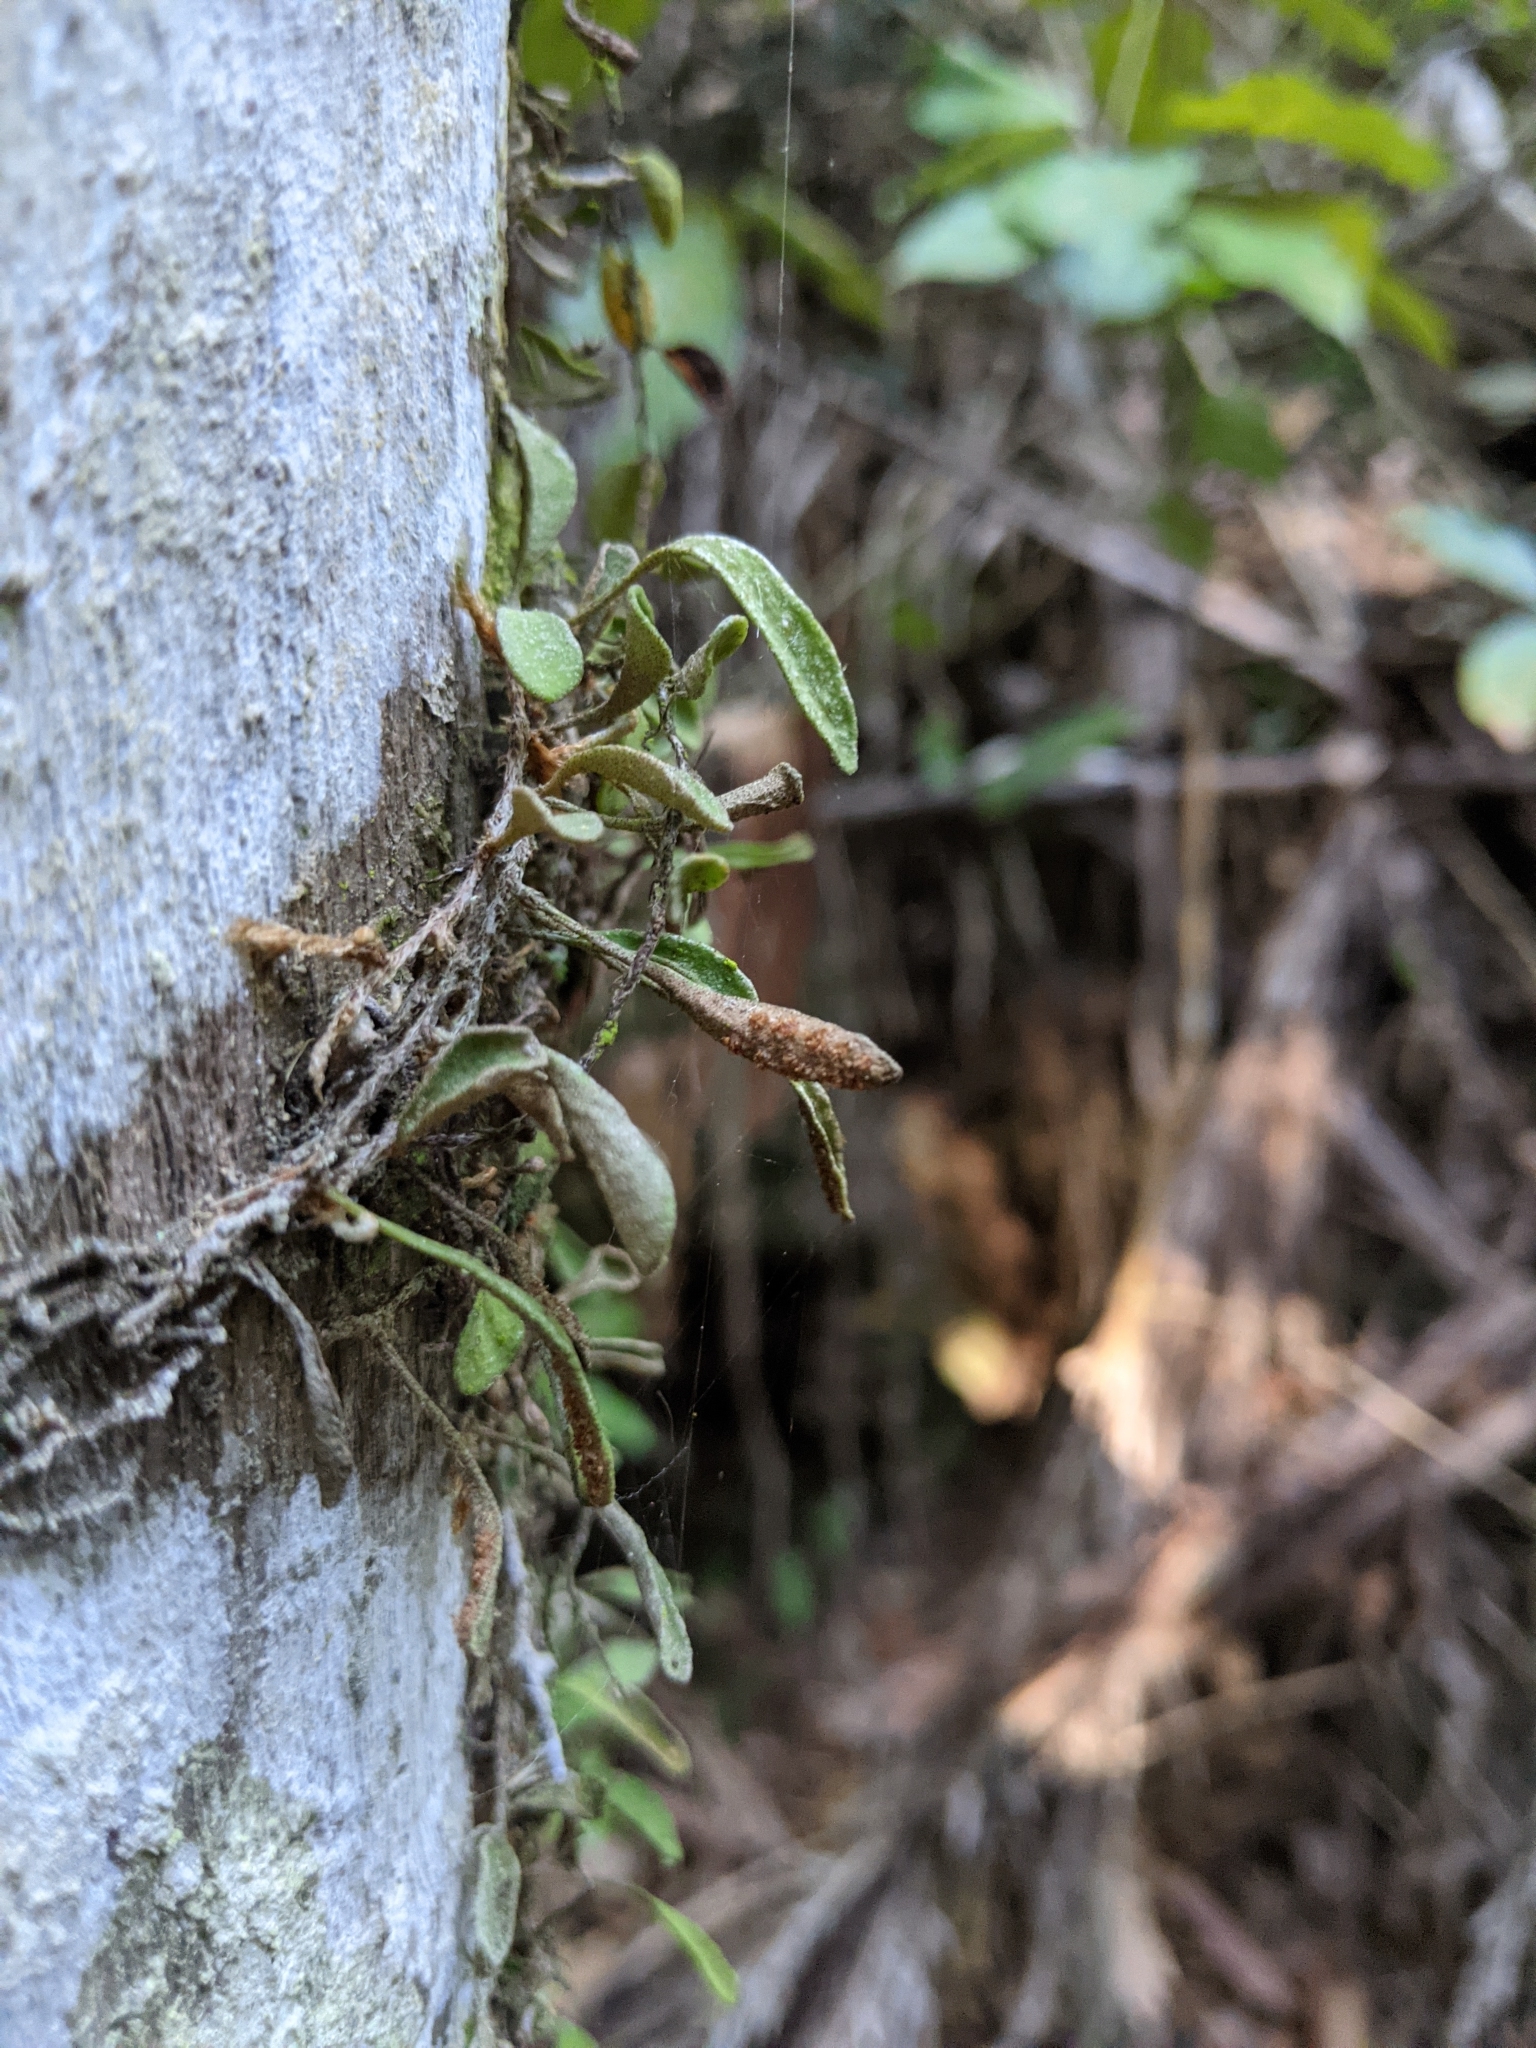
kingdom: Plantae
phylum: Tracheophyta
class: Polypodiopsida
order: Polypodiales
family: Polypodiaceae
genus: Pyrrosia
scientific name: Pyrrosia rupestris
